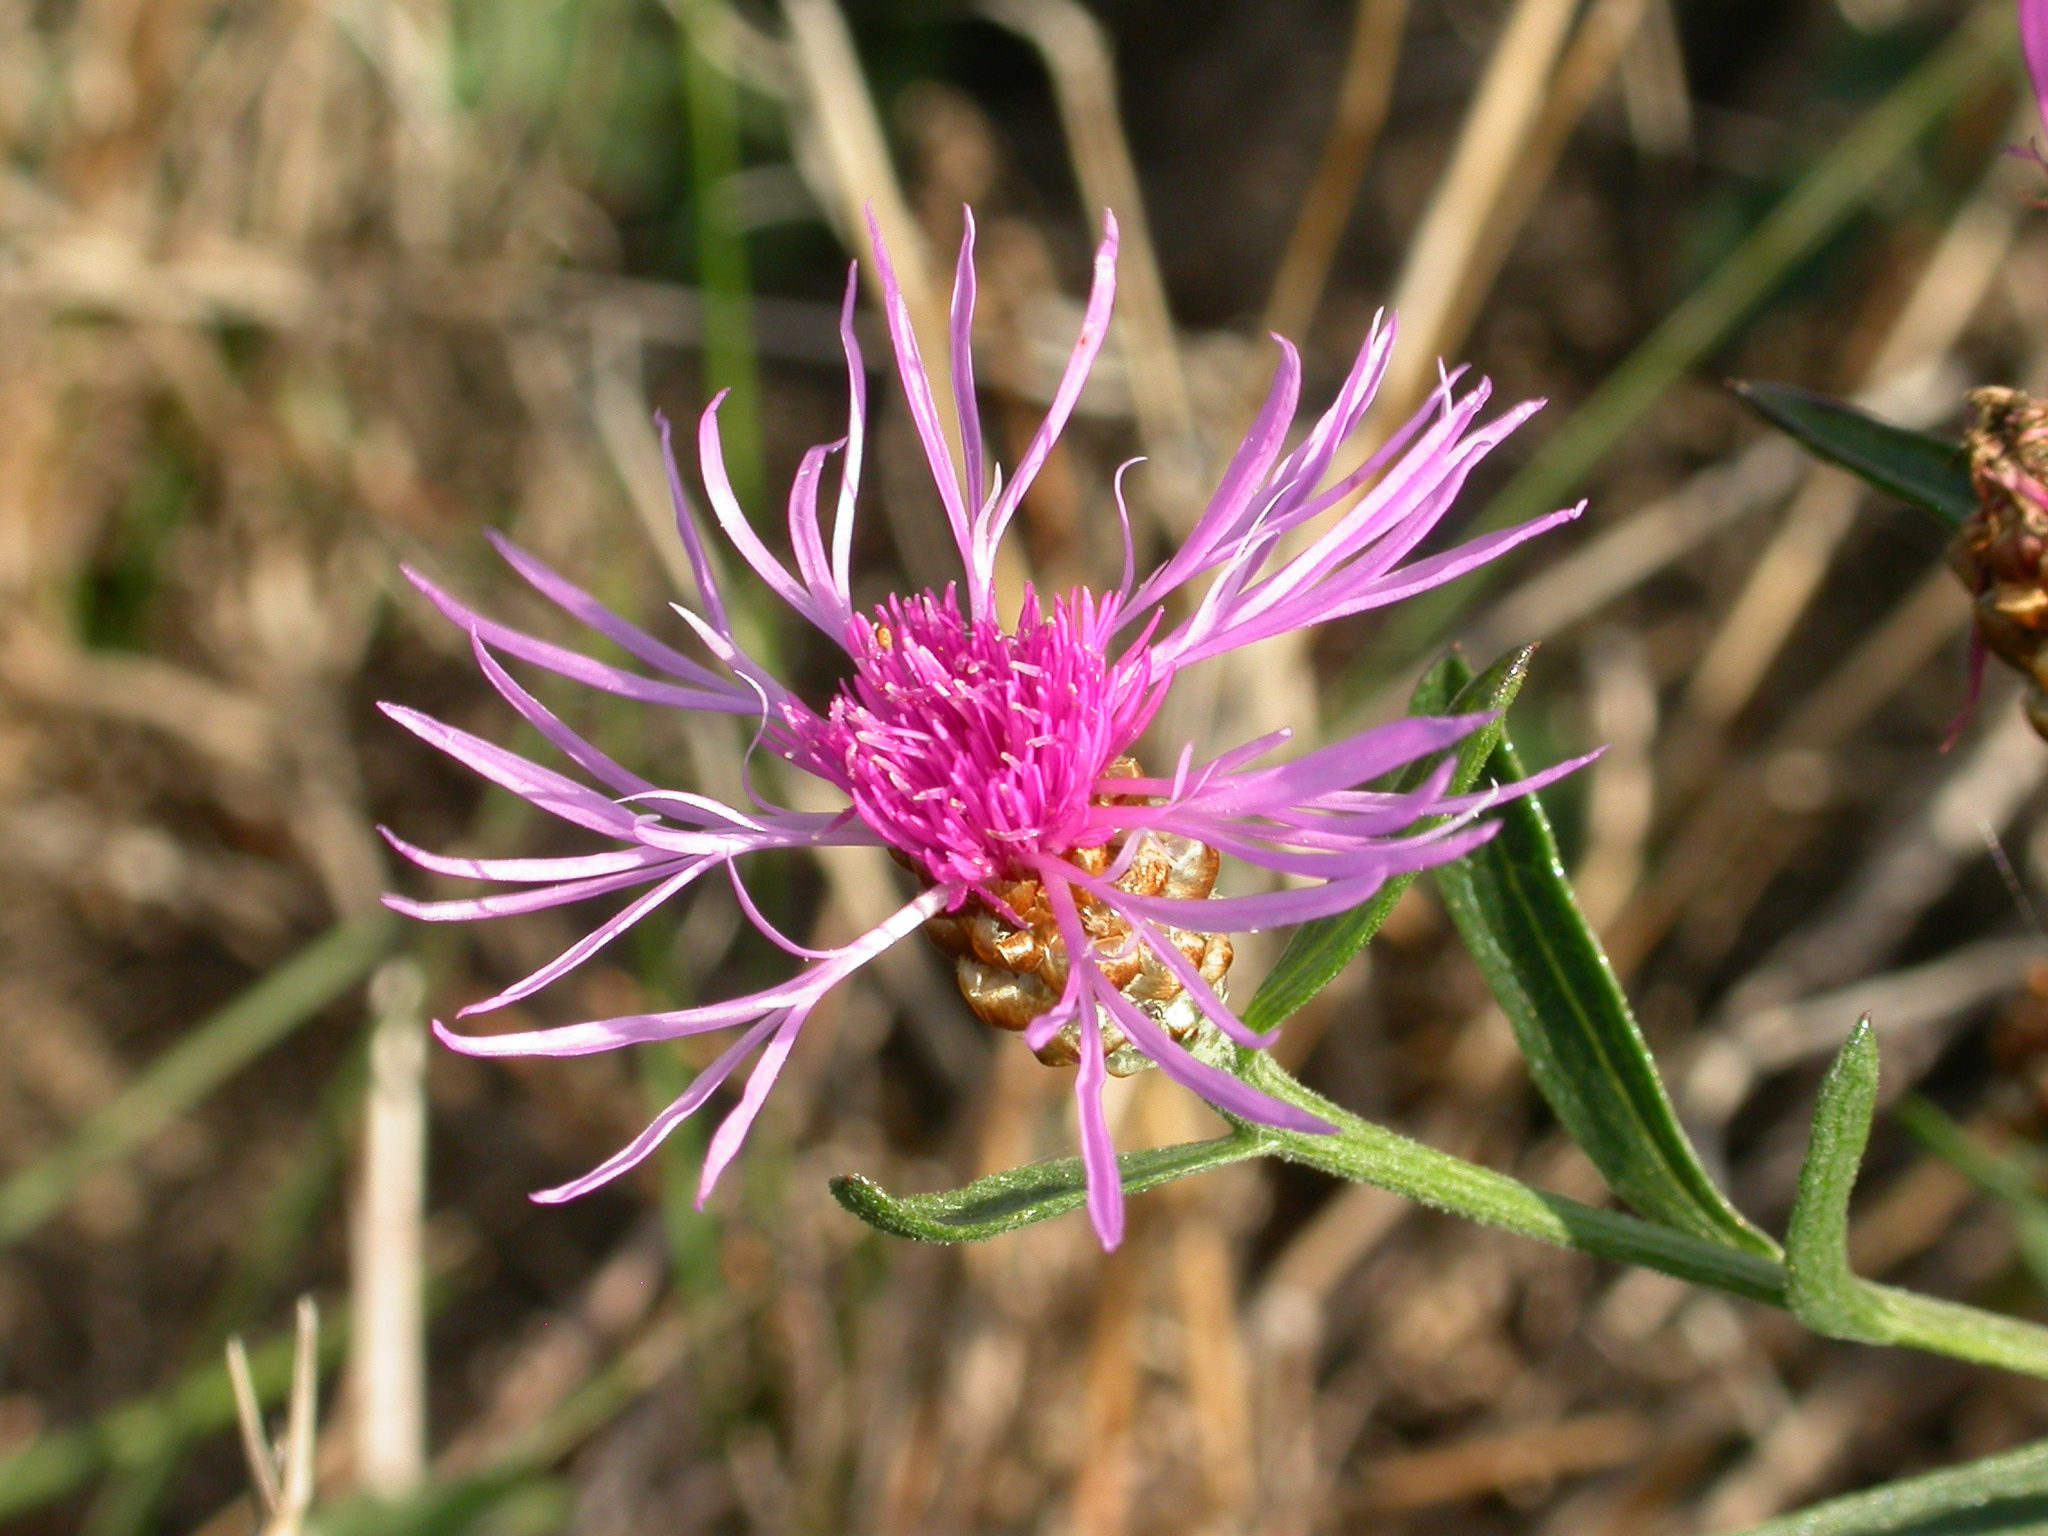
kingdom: Plantae
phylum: Tracheophyta
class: Magnoliopsida
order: Asterales
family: Asteraceae
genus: Centaurea
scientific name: Centaurea jacea
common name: Brown knapweed
